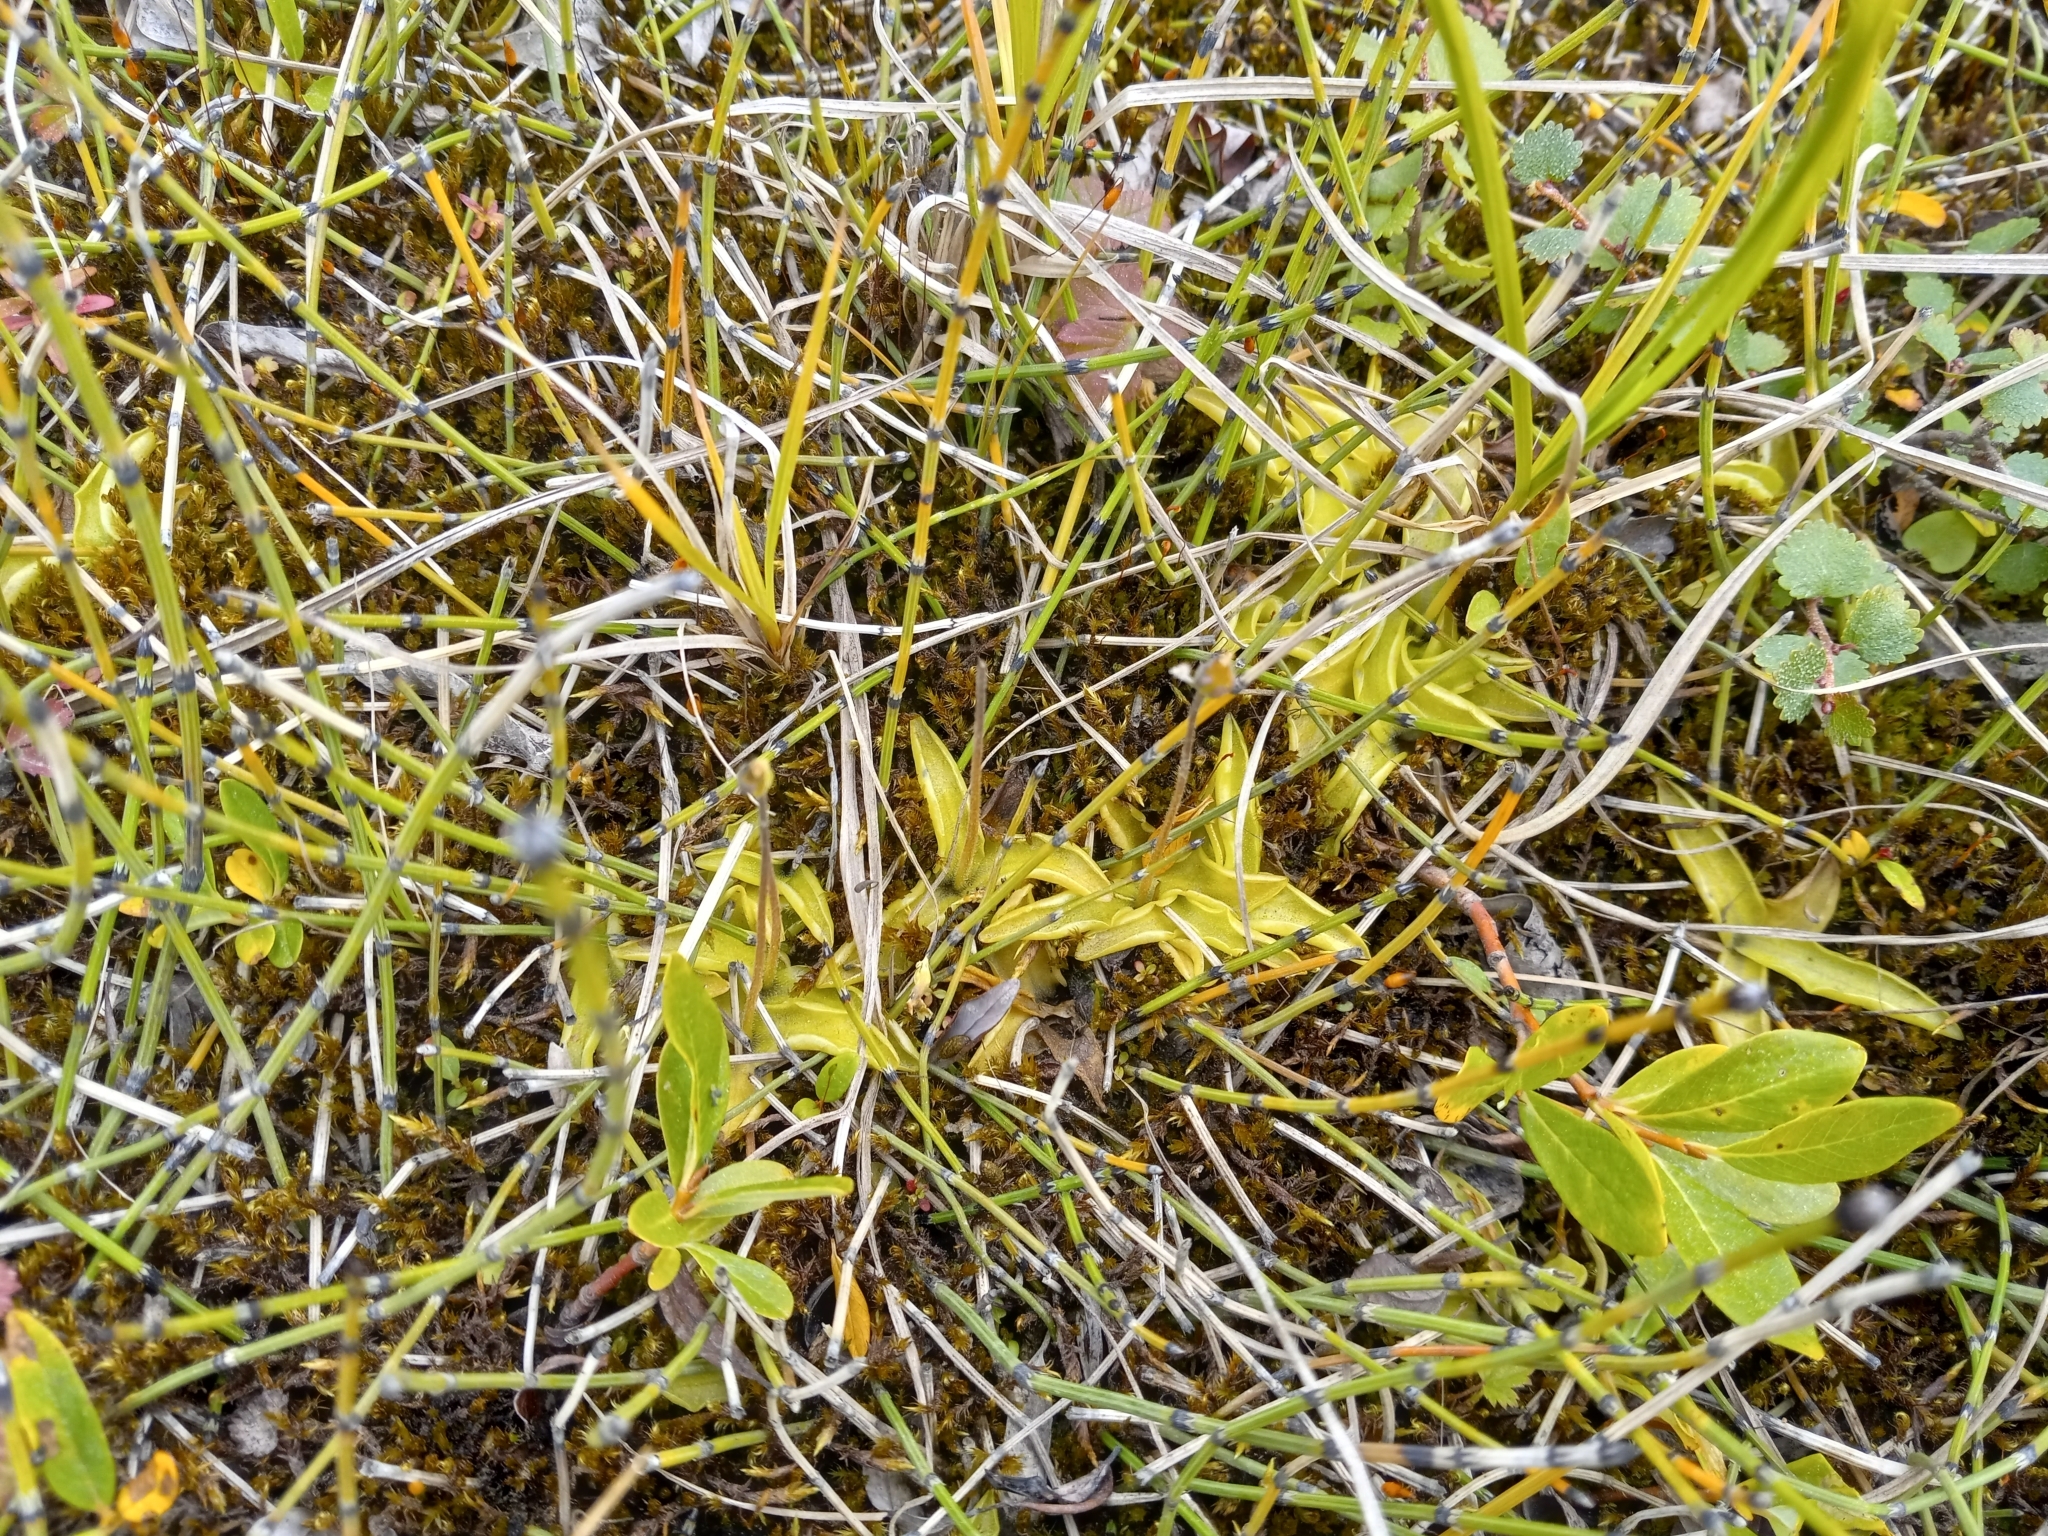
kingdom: Plantae
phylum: Tracheophyta
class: Magnoliopsida
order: Lamiales
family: Lentibulariaceae
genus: Pinguicula
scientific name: Pinguicula vulgaris
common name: Common butterwort
